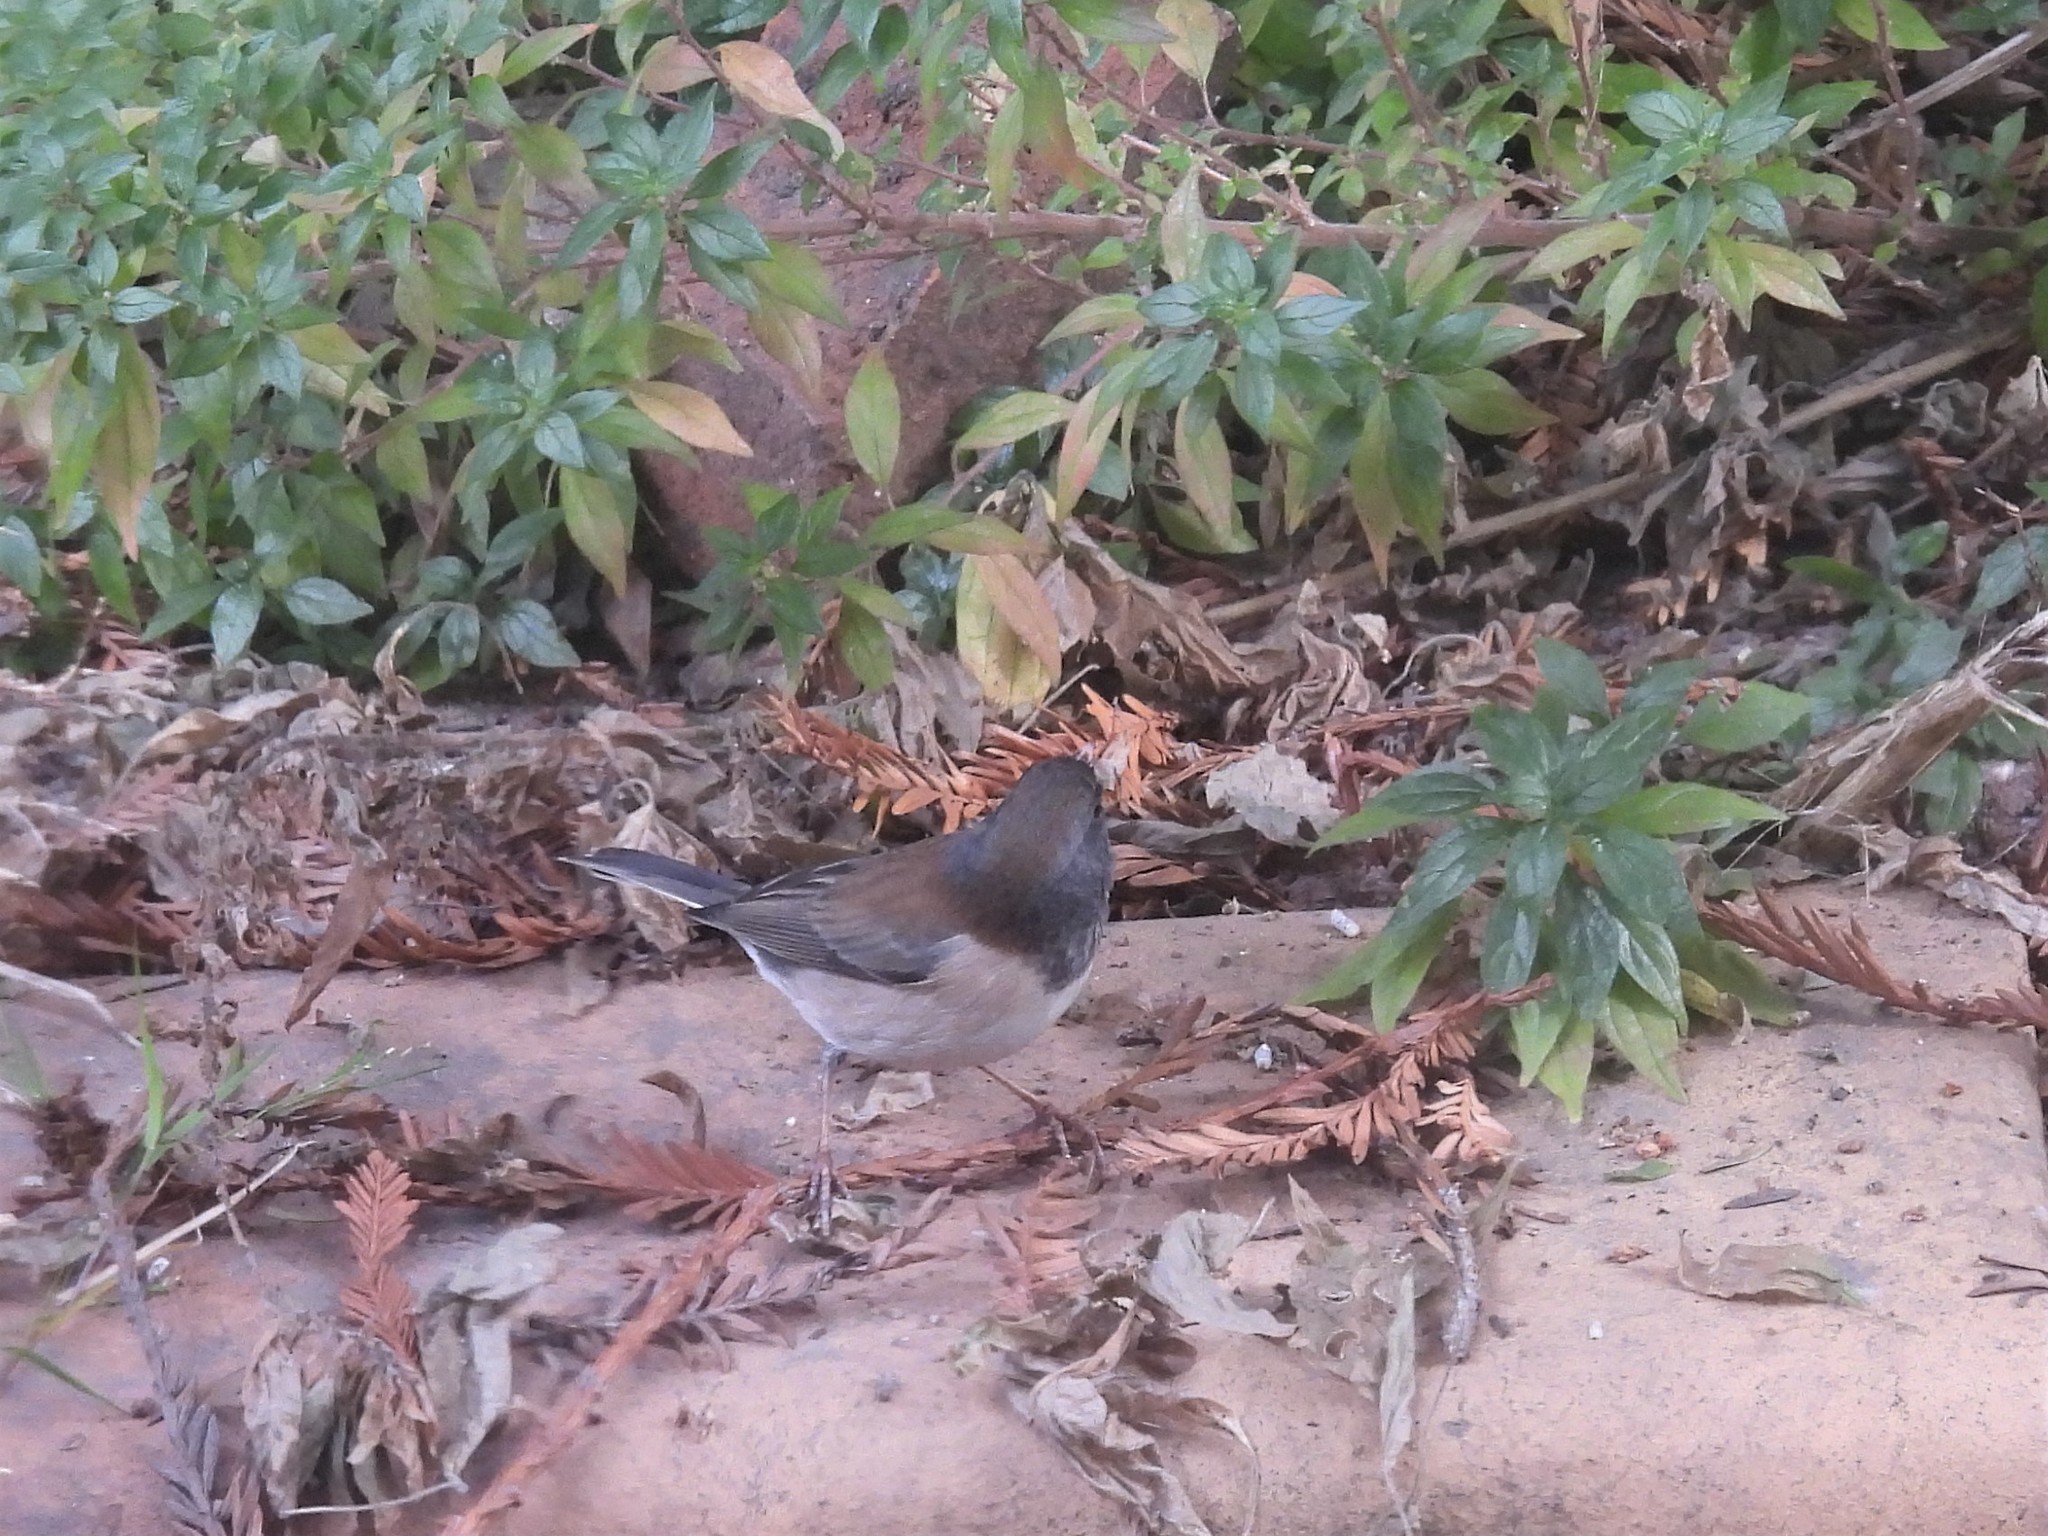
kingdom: Animalia
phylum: Chordata
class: Aves
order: Passeriformes
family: Passerellidae
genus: Junco
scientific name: Junco hyemalis
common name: Dark-eyed junco
